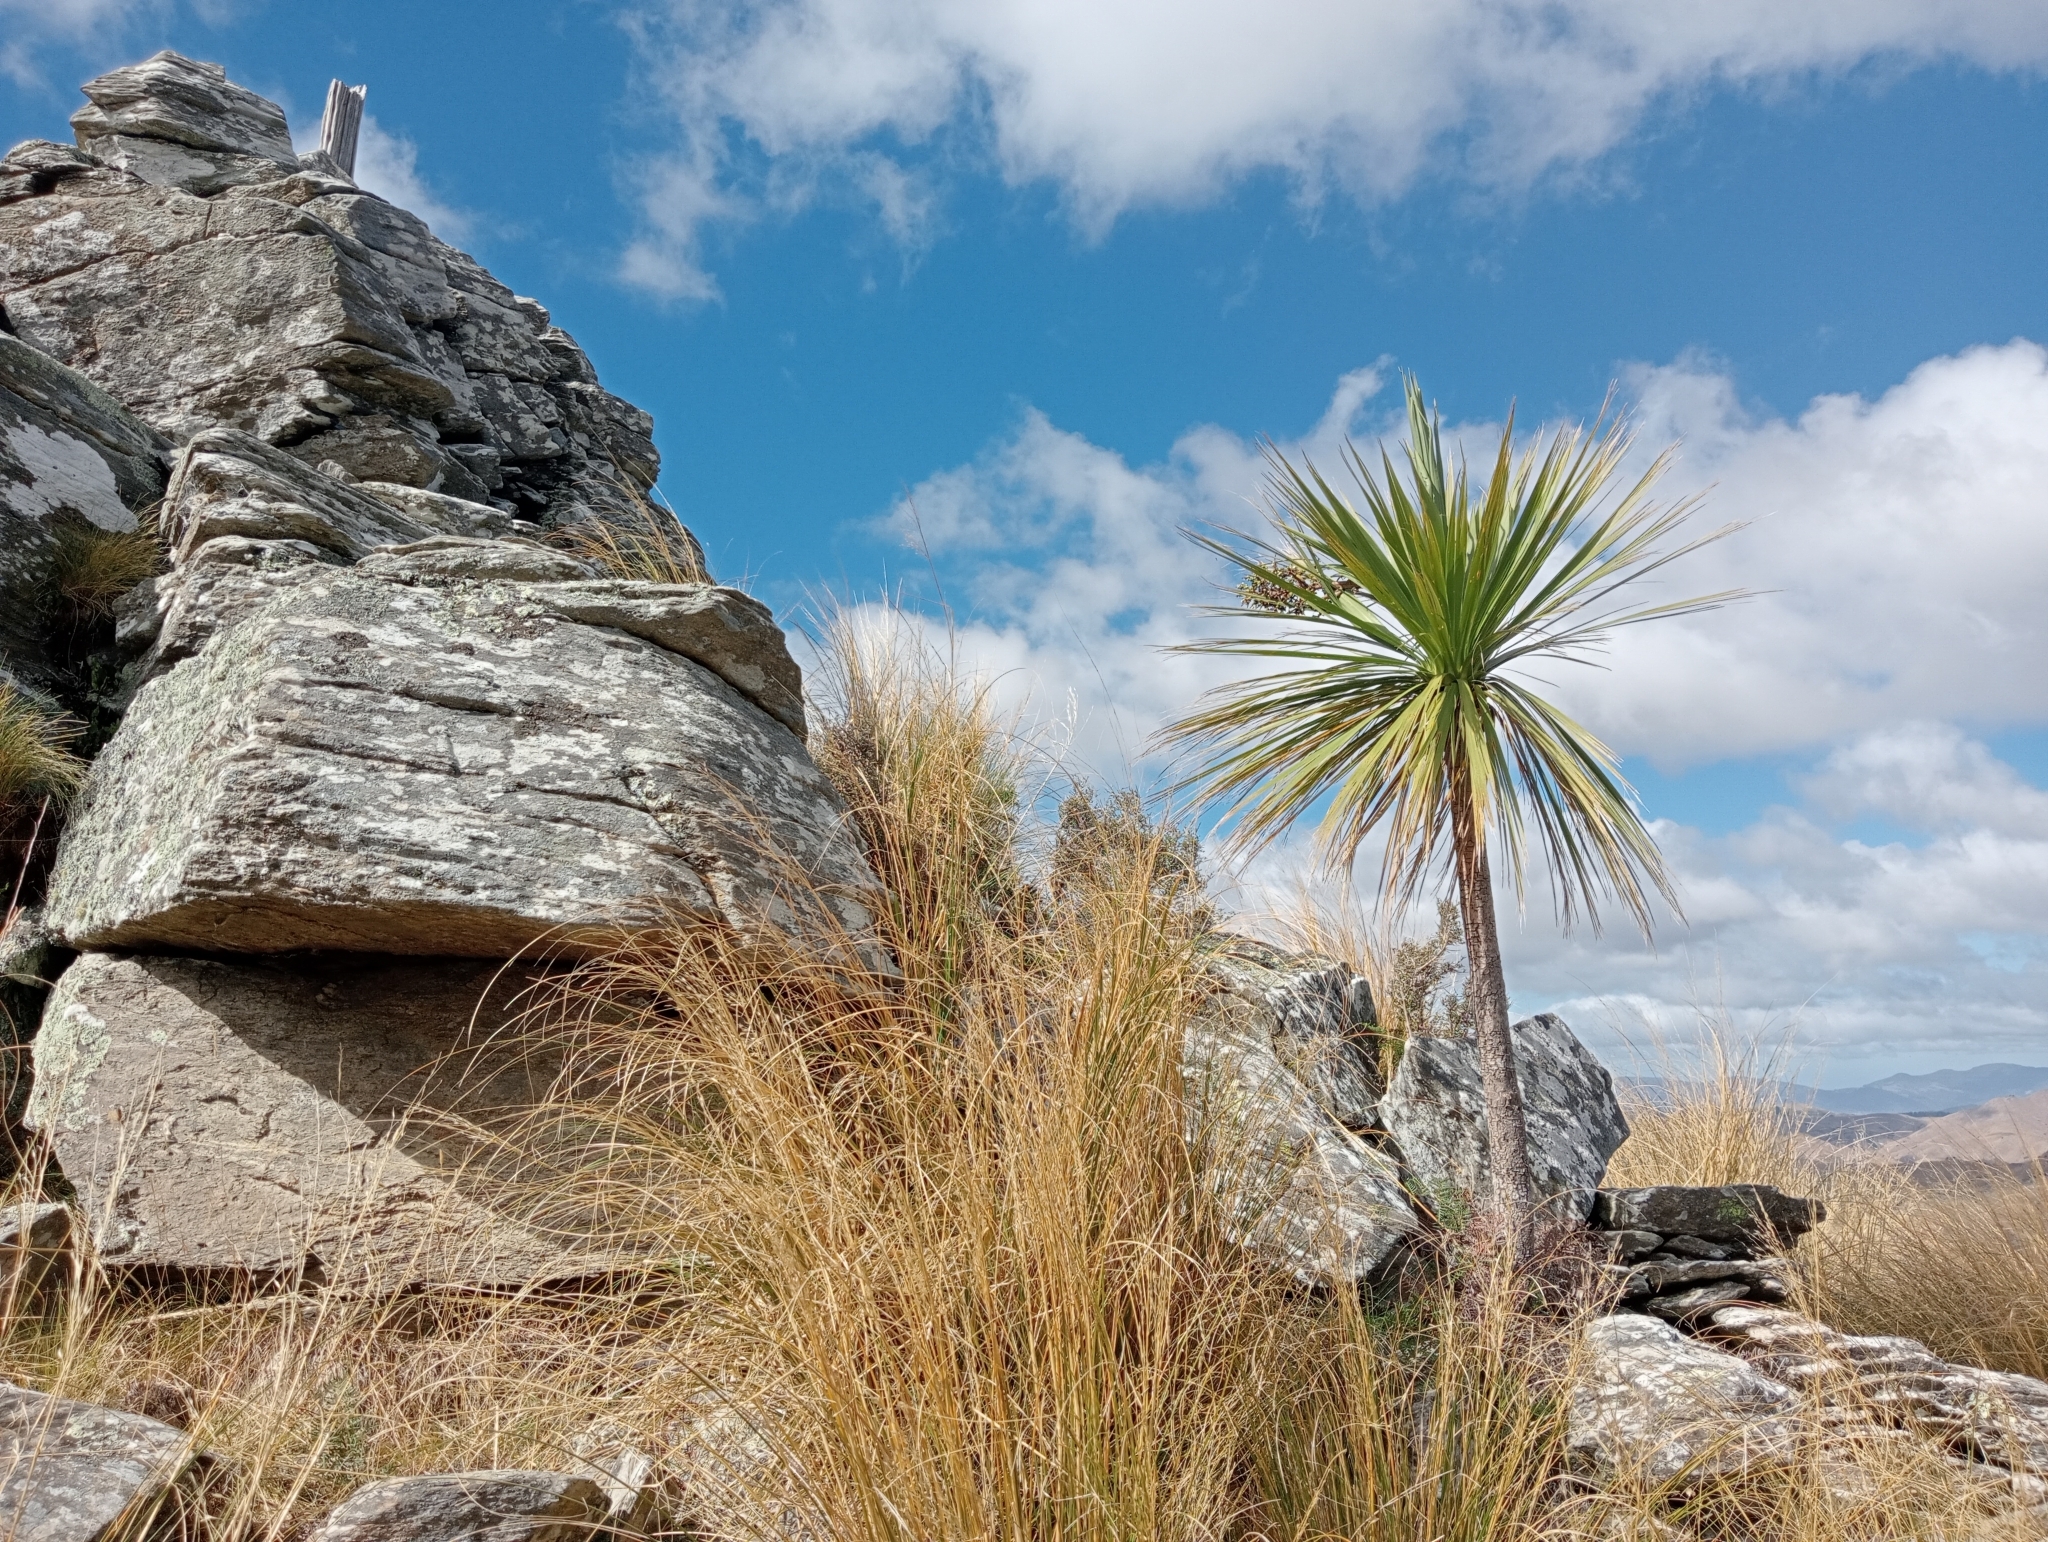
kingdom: Plantae
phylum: Tracheophyta
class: Liliopsida
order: Asparagales
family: Asparagaceae
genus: Cordyline
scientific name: Cordyline australis
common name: Cabbage-palm
